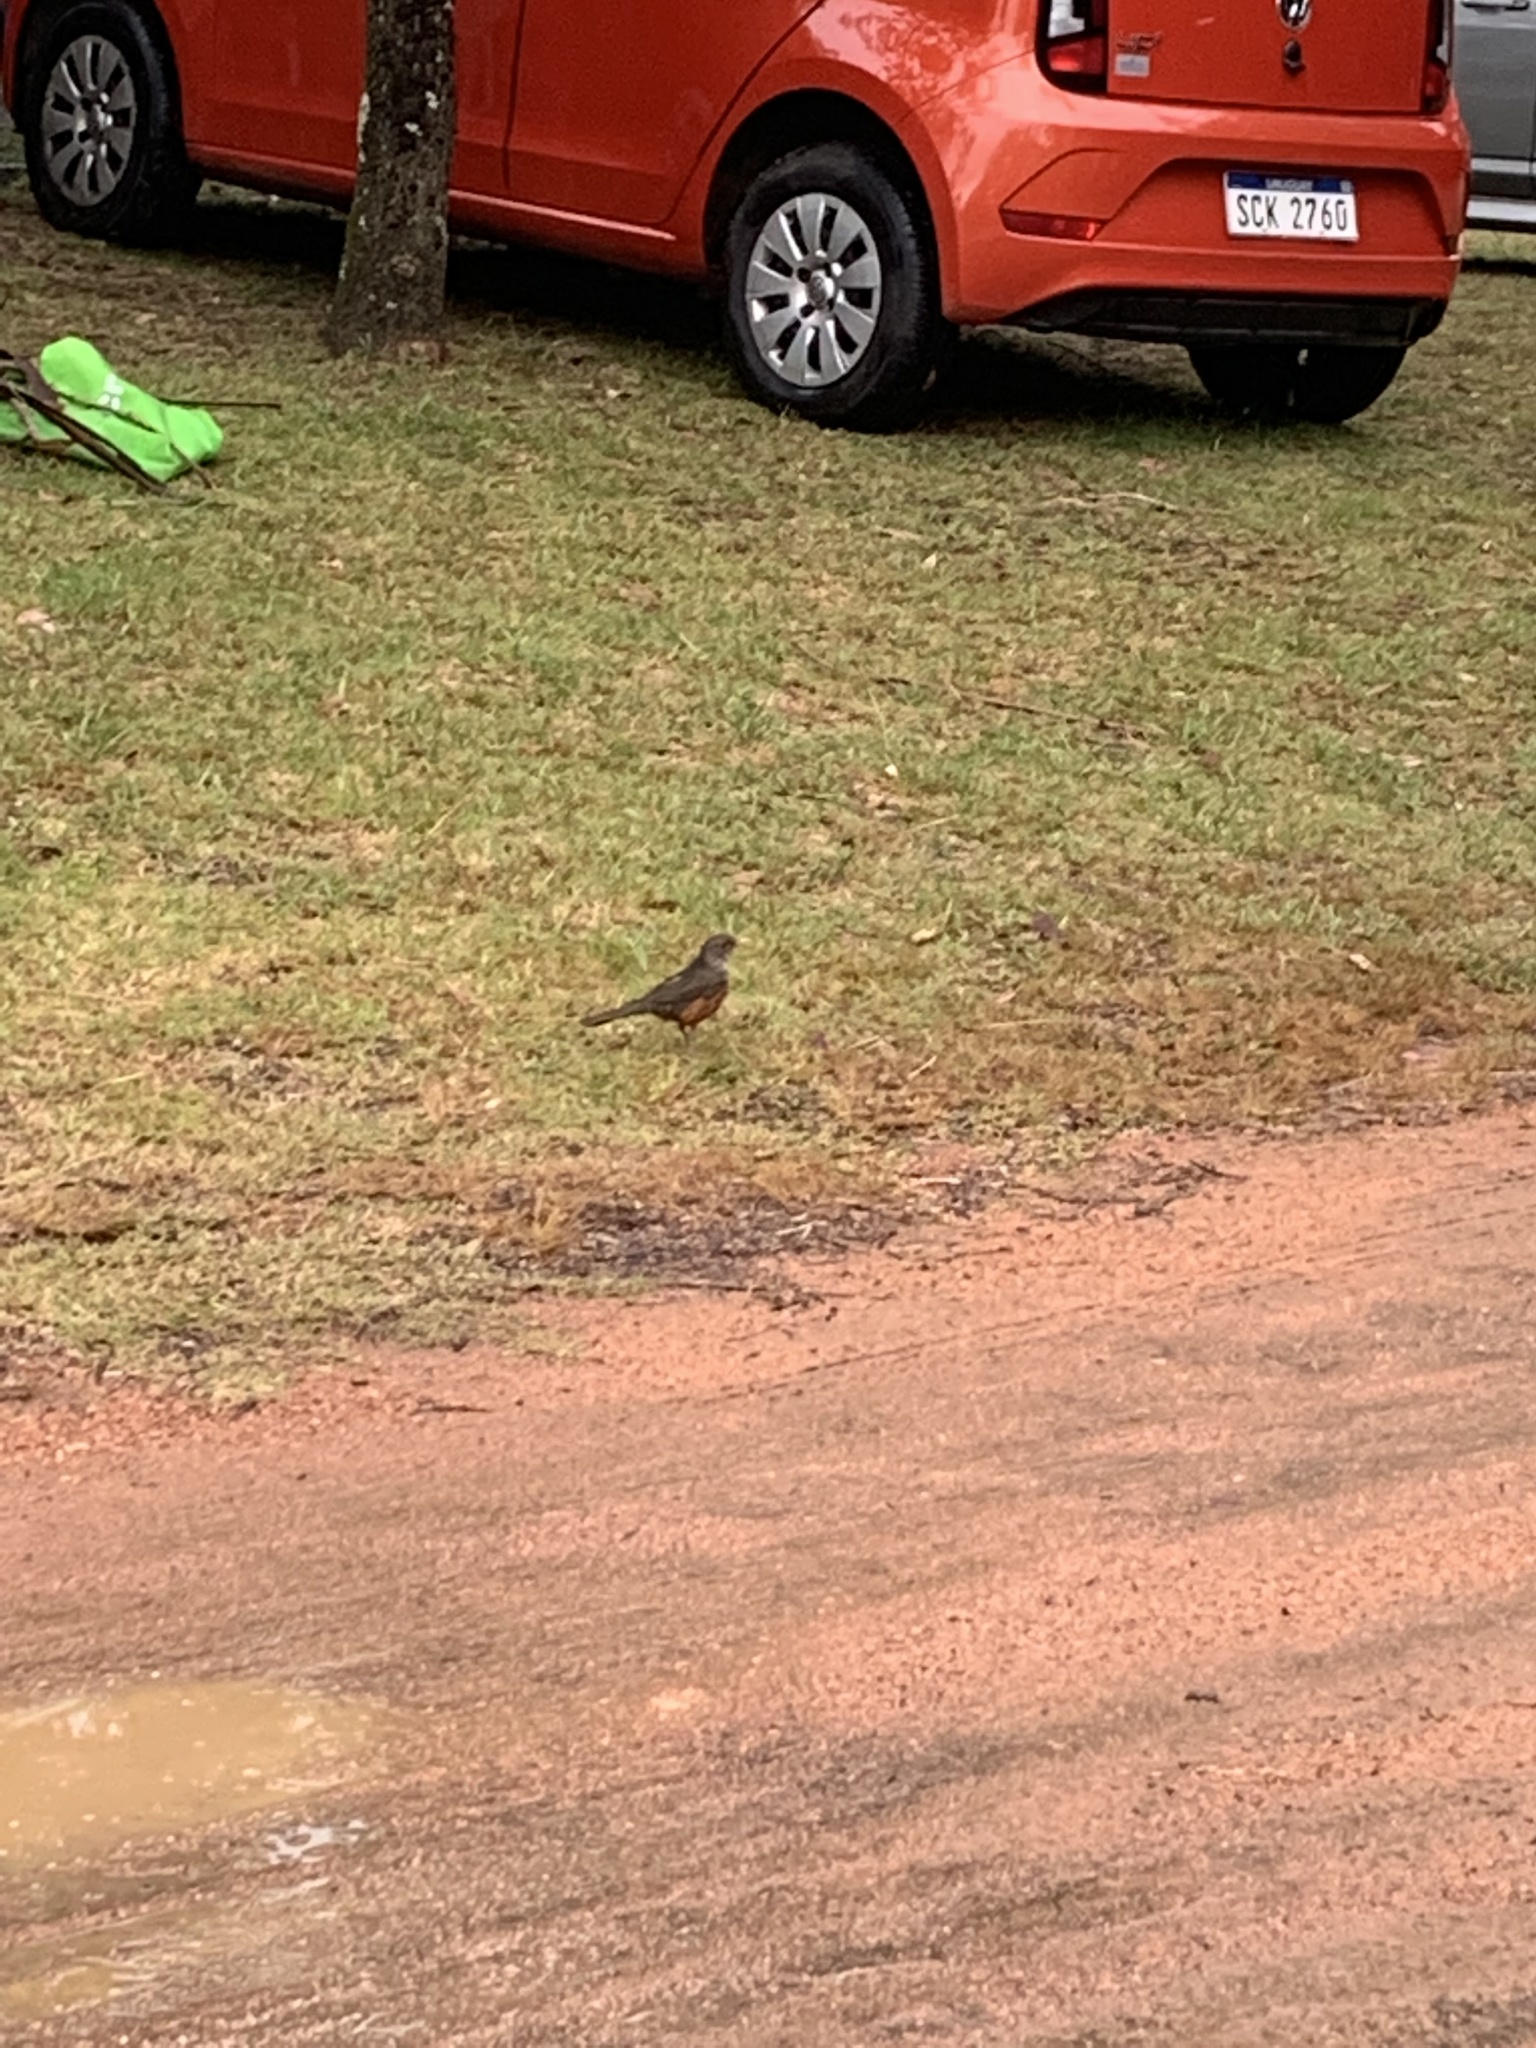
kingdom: Animalia
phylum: Chordata
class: Aves
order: Passeriformes
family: Turdidae
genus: Turdus
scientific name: Turdus rufiventris
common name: Rufous-bellied thrush
